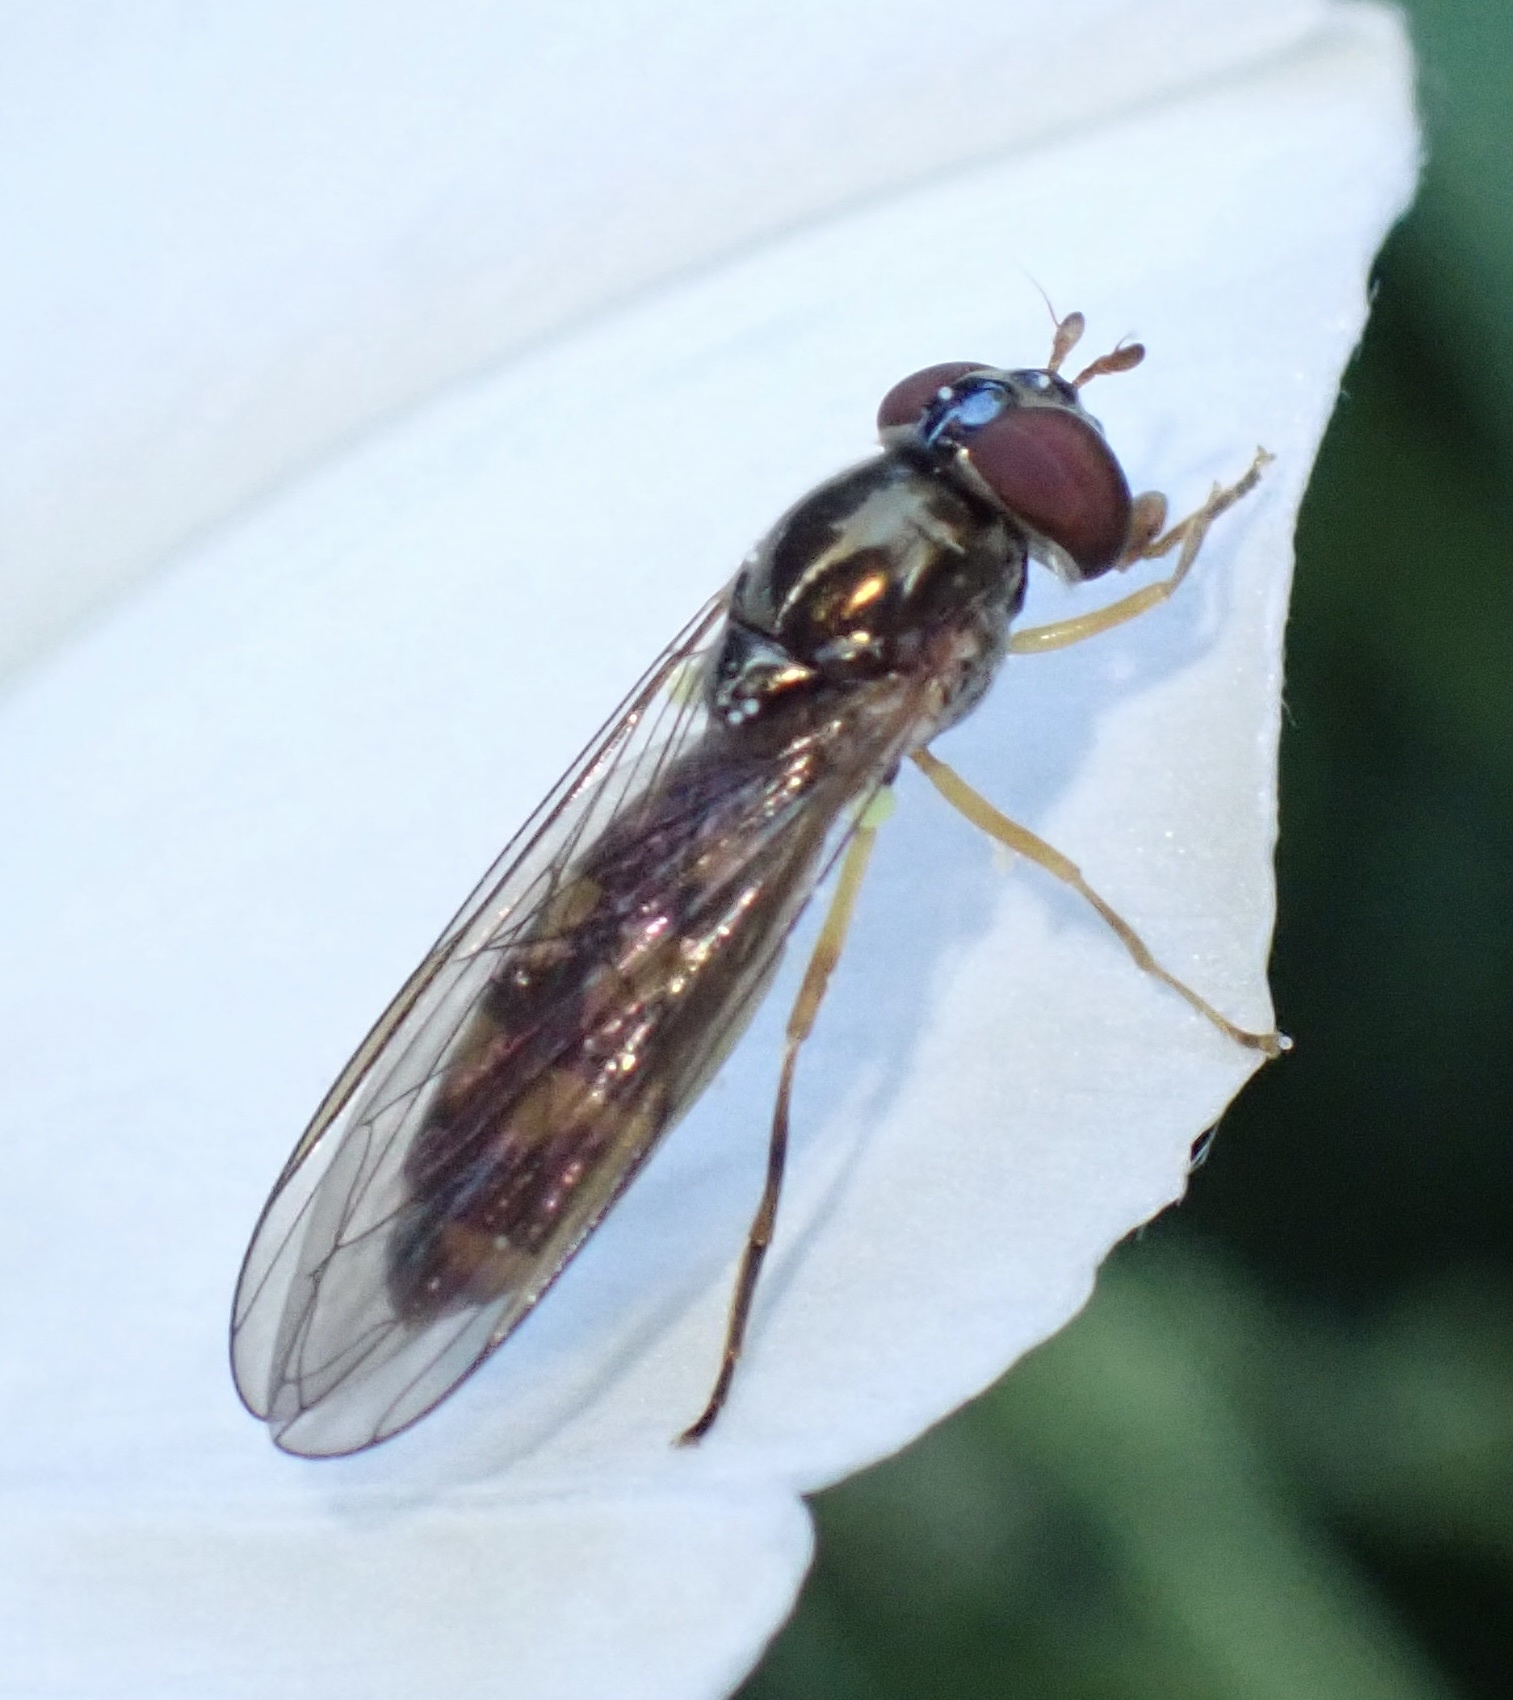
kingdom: Animalia
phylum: Arthropoda
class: Insecta
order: Diptera
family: Syrphidae
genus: Melanostoma
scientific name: Melanostoma scalare
